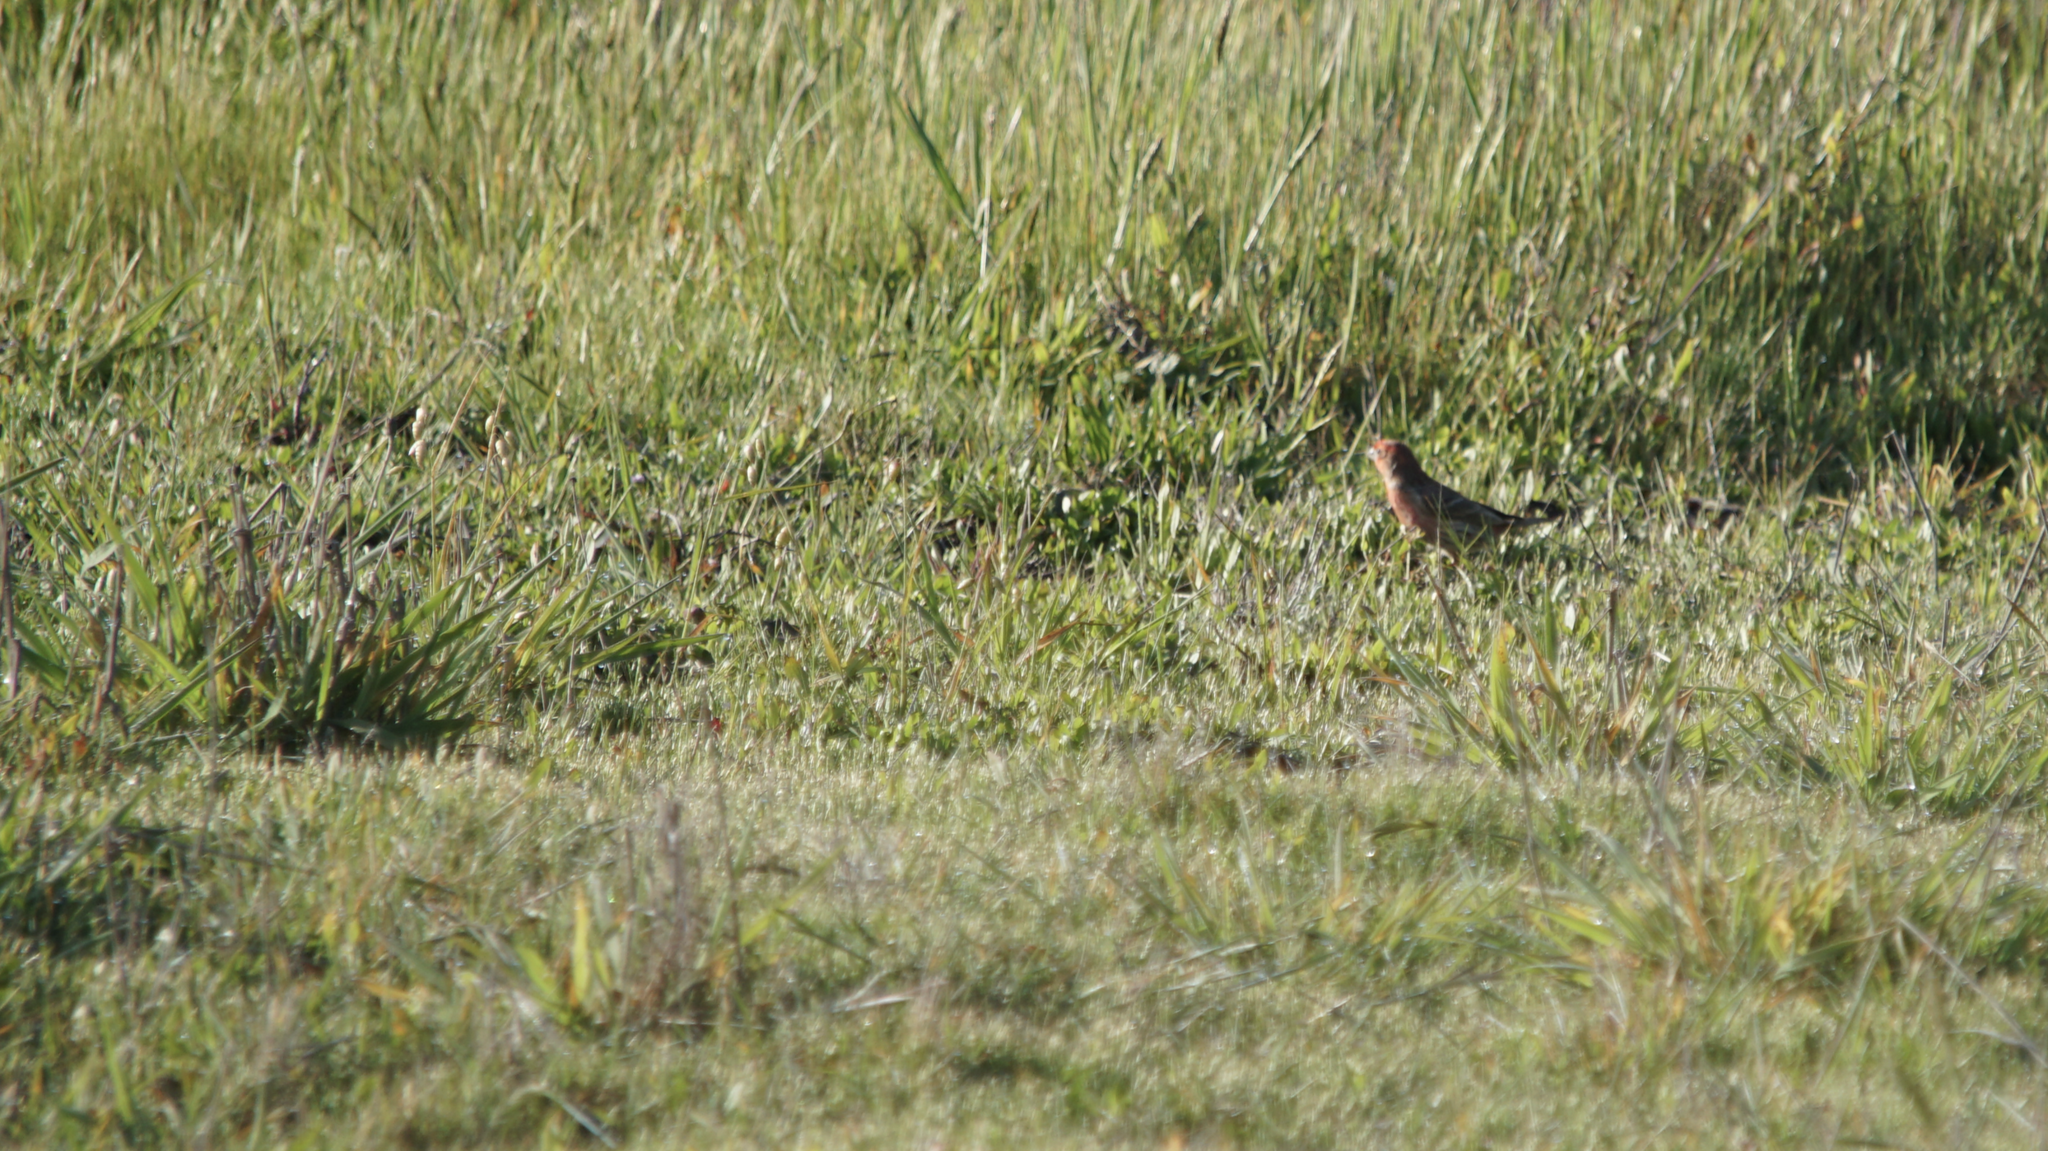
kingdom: Animalia
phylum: Chordata
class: Aves
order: Passeriformes
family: Fringillidae
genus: Haemorhous
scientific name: Haemorhous mexicanus
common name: House finch
